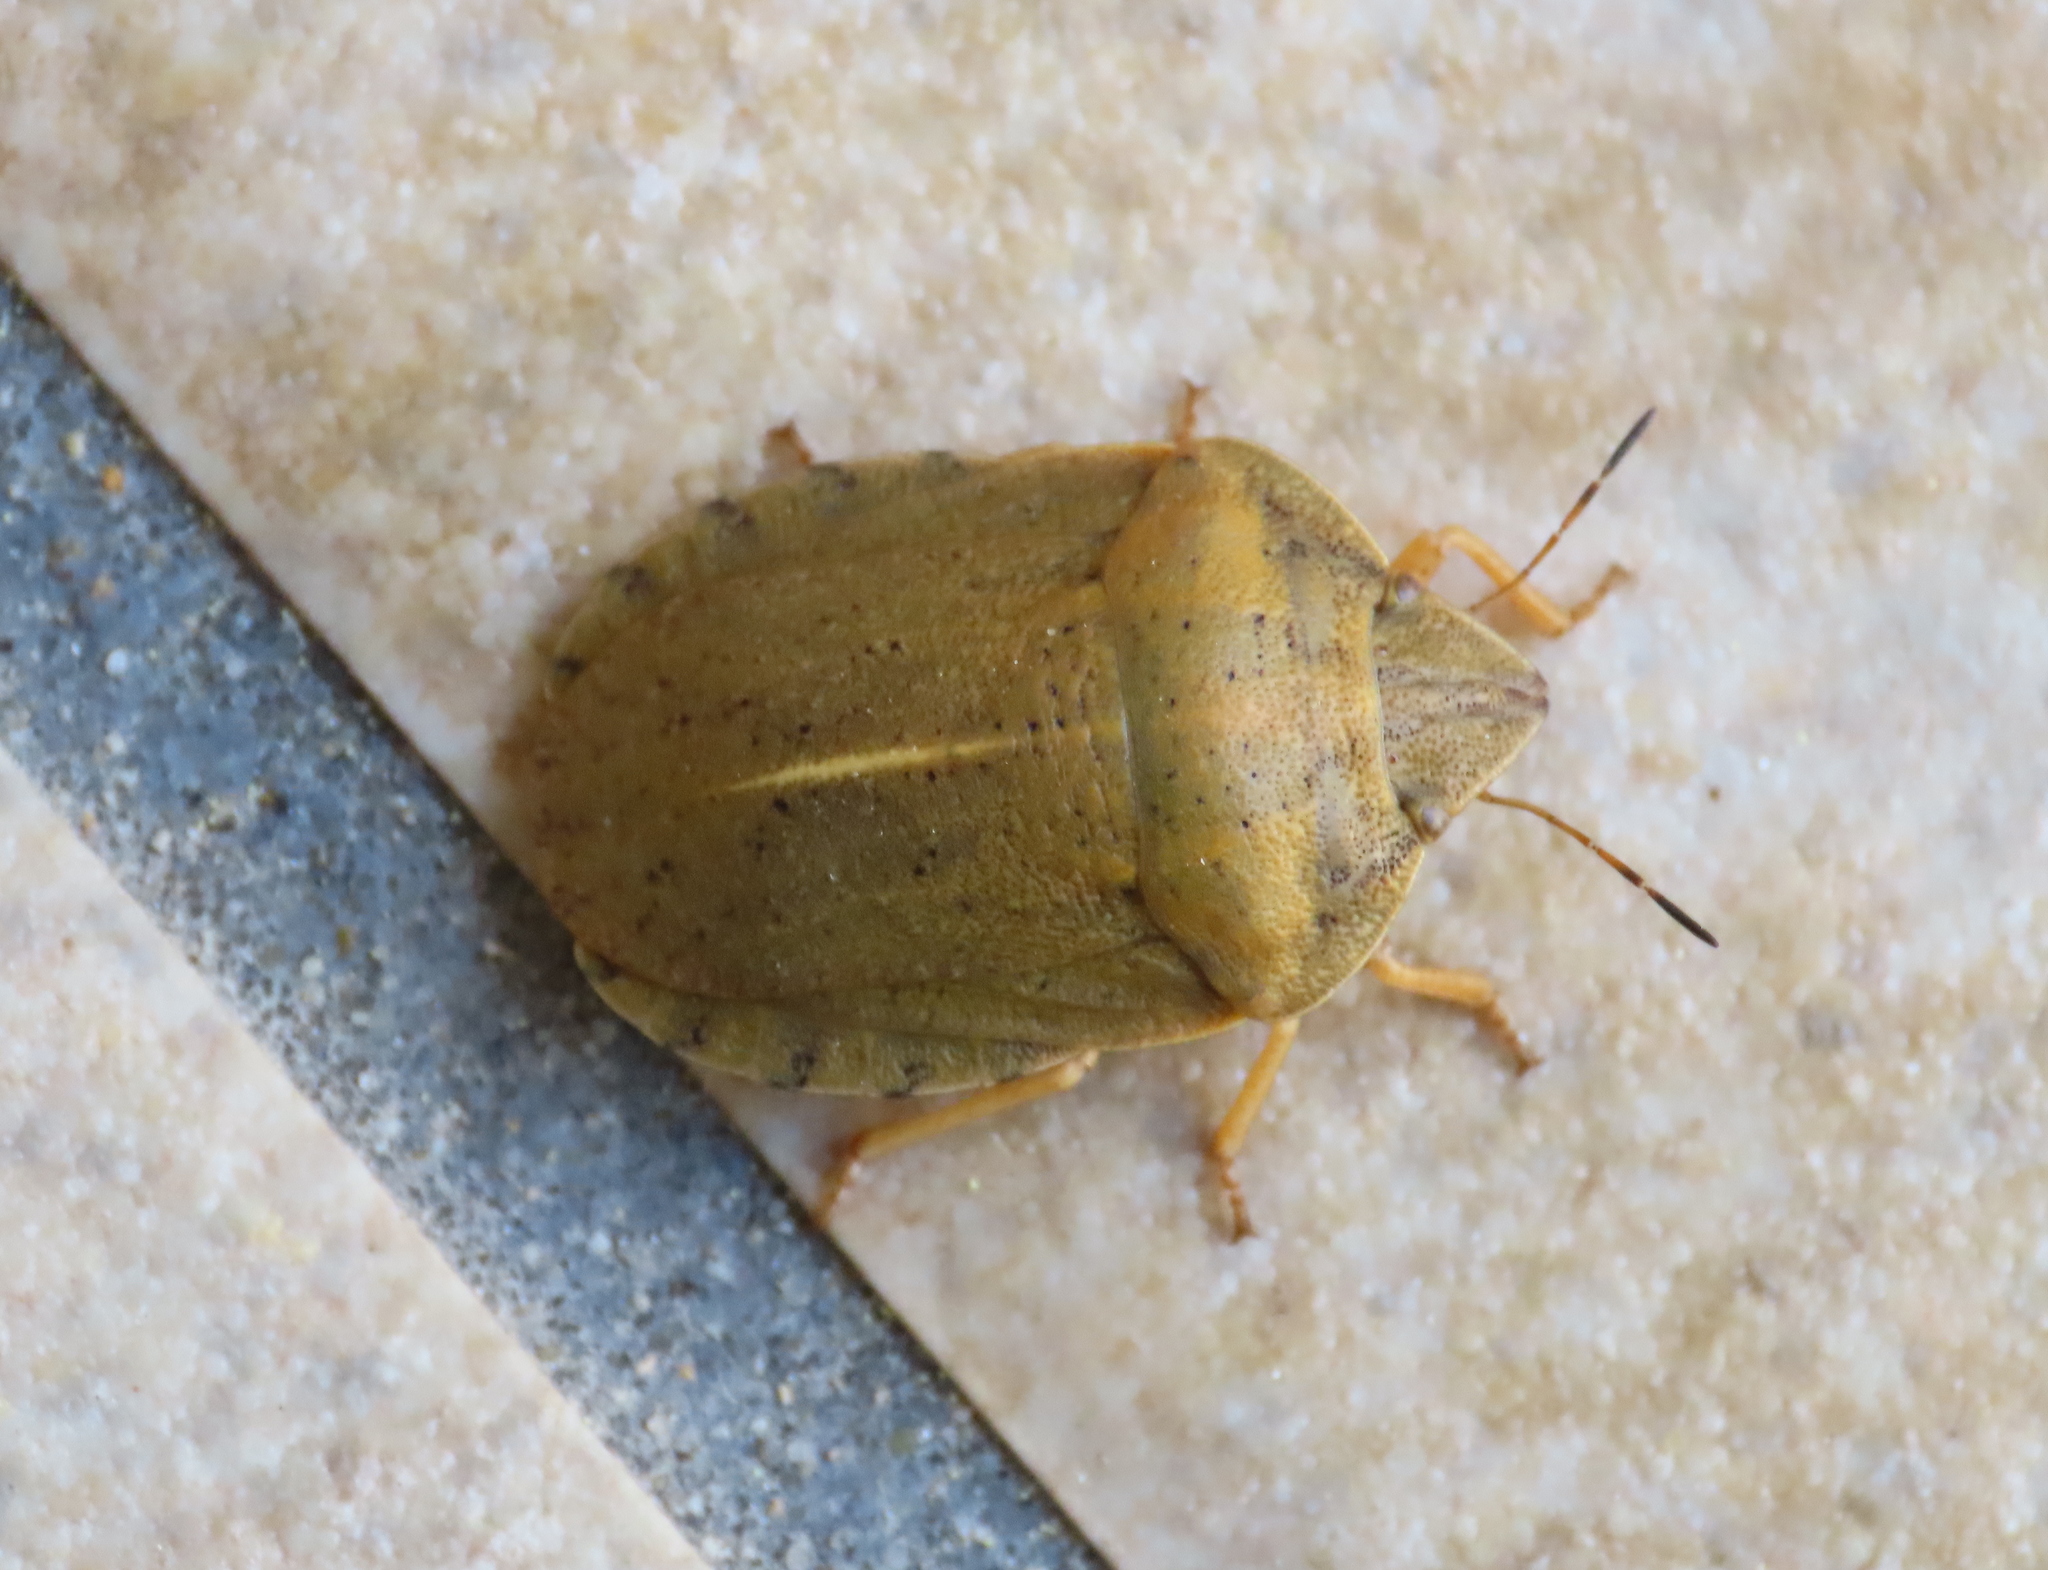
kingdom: Animalia
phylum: Arthropoda
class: Insecta
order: Hemiptera
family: Scutelleridae
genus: Eurygaster
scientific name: Eurygaster austriaca
